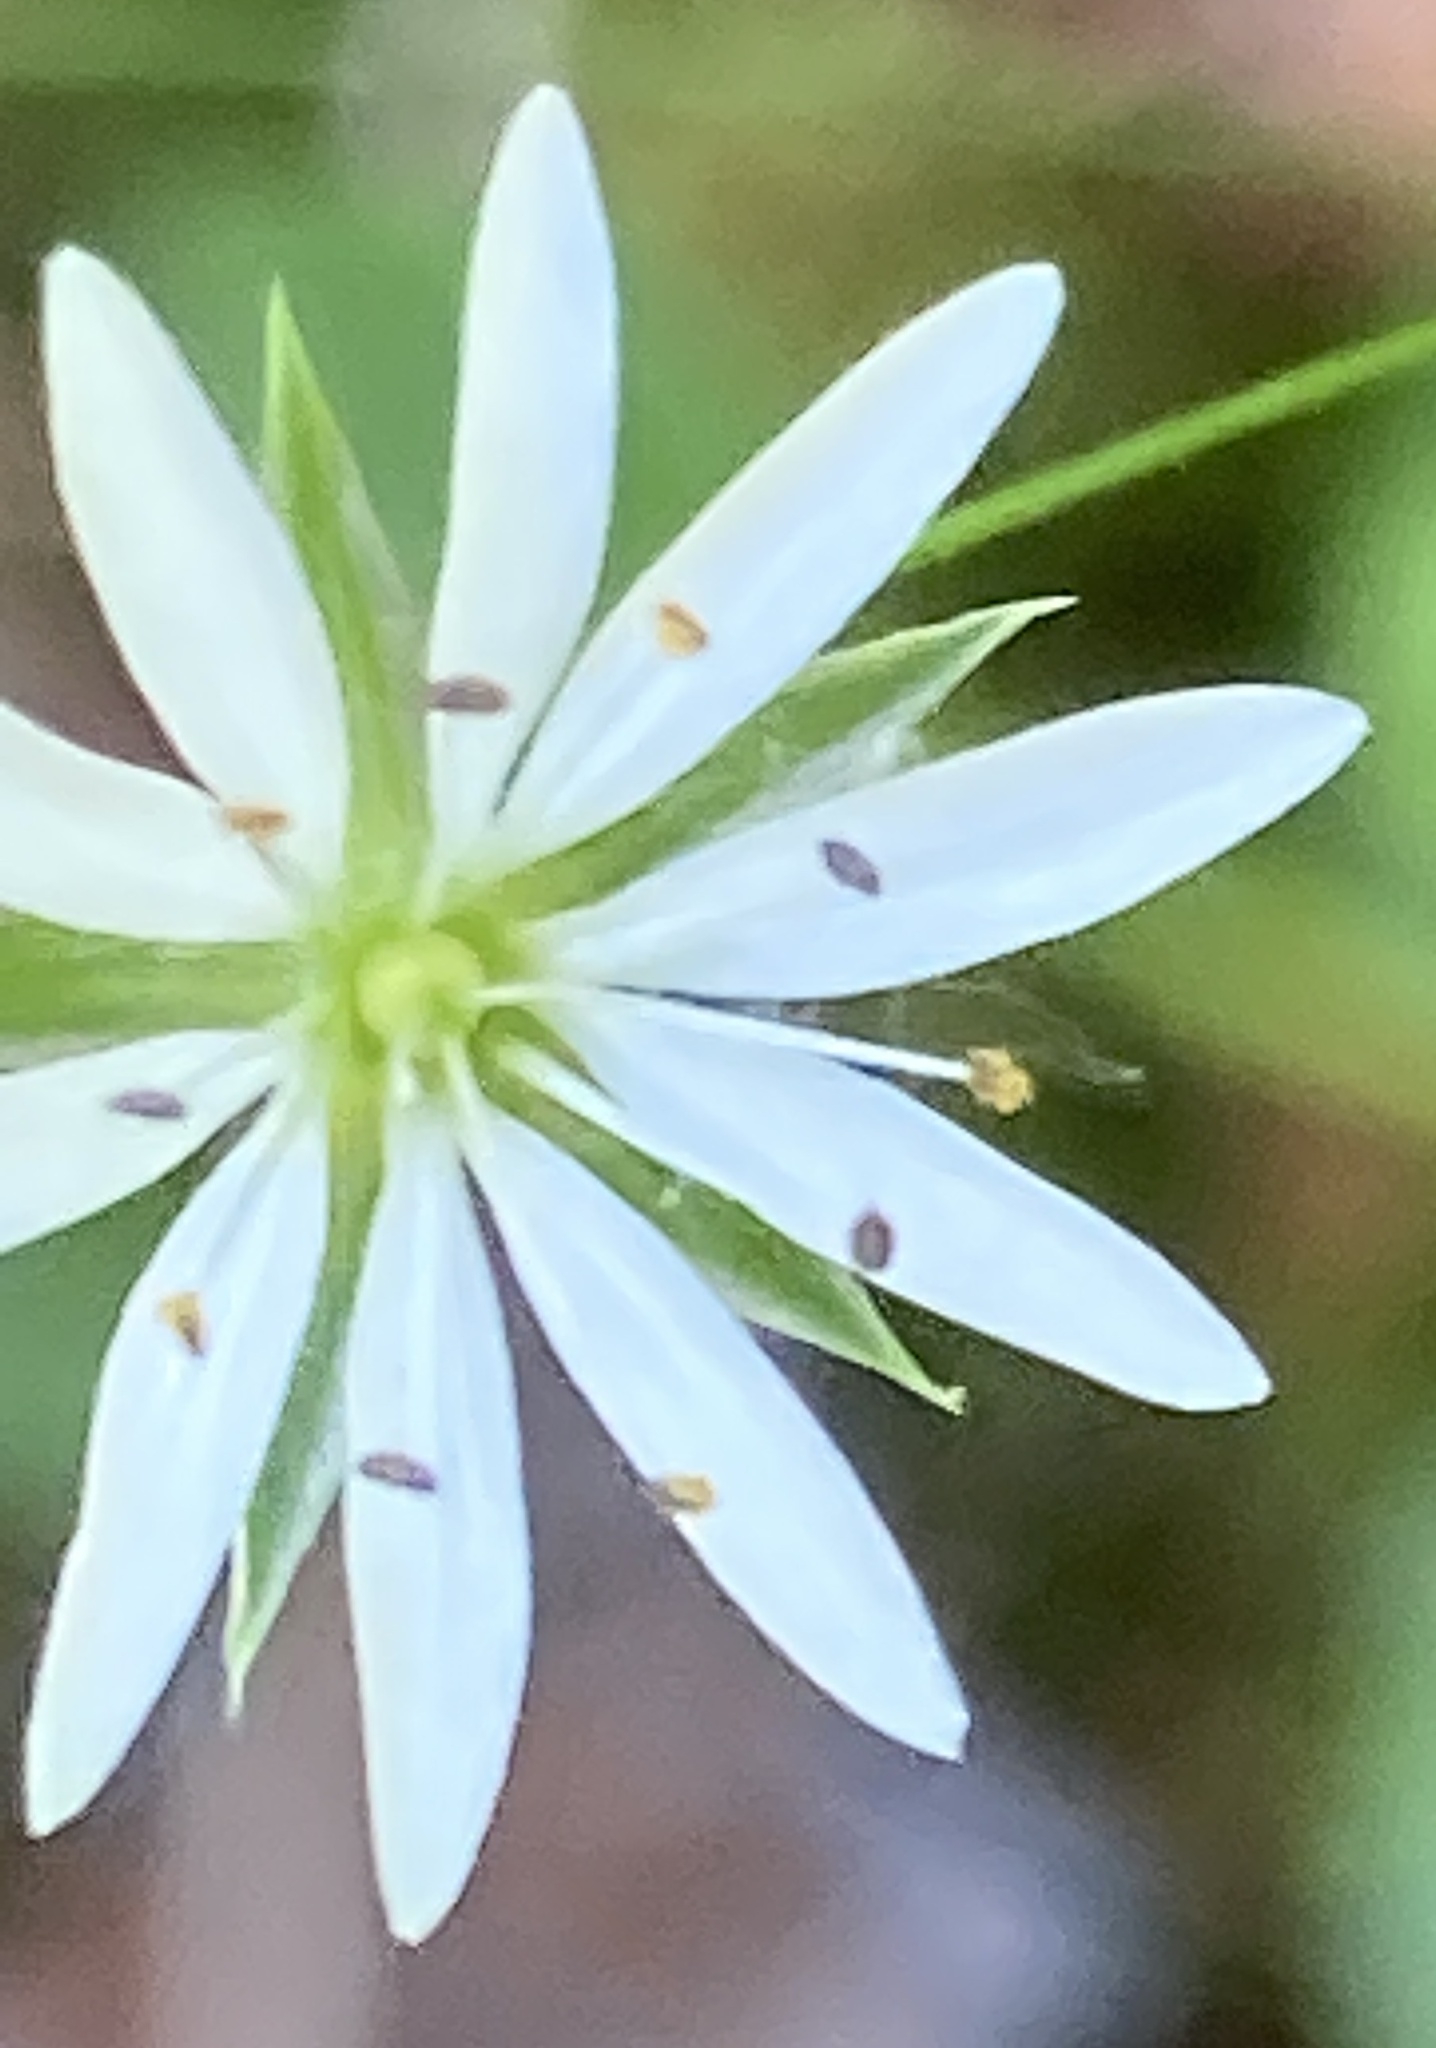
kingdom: Plantae
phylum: Tracheophyta
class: Magnoliopsida
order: Caryophyllales
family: Caryophyllaceae
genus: Stellaria
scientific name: Stellaria graminea
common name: Grass-like starwort
